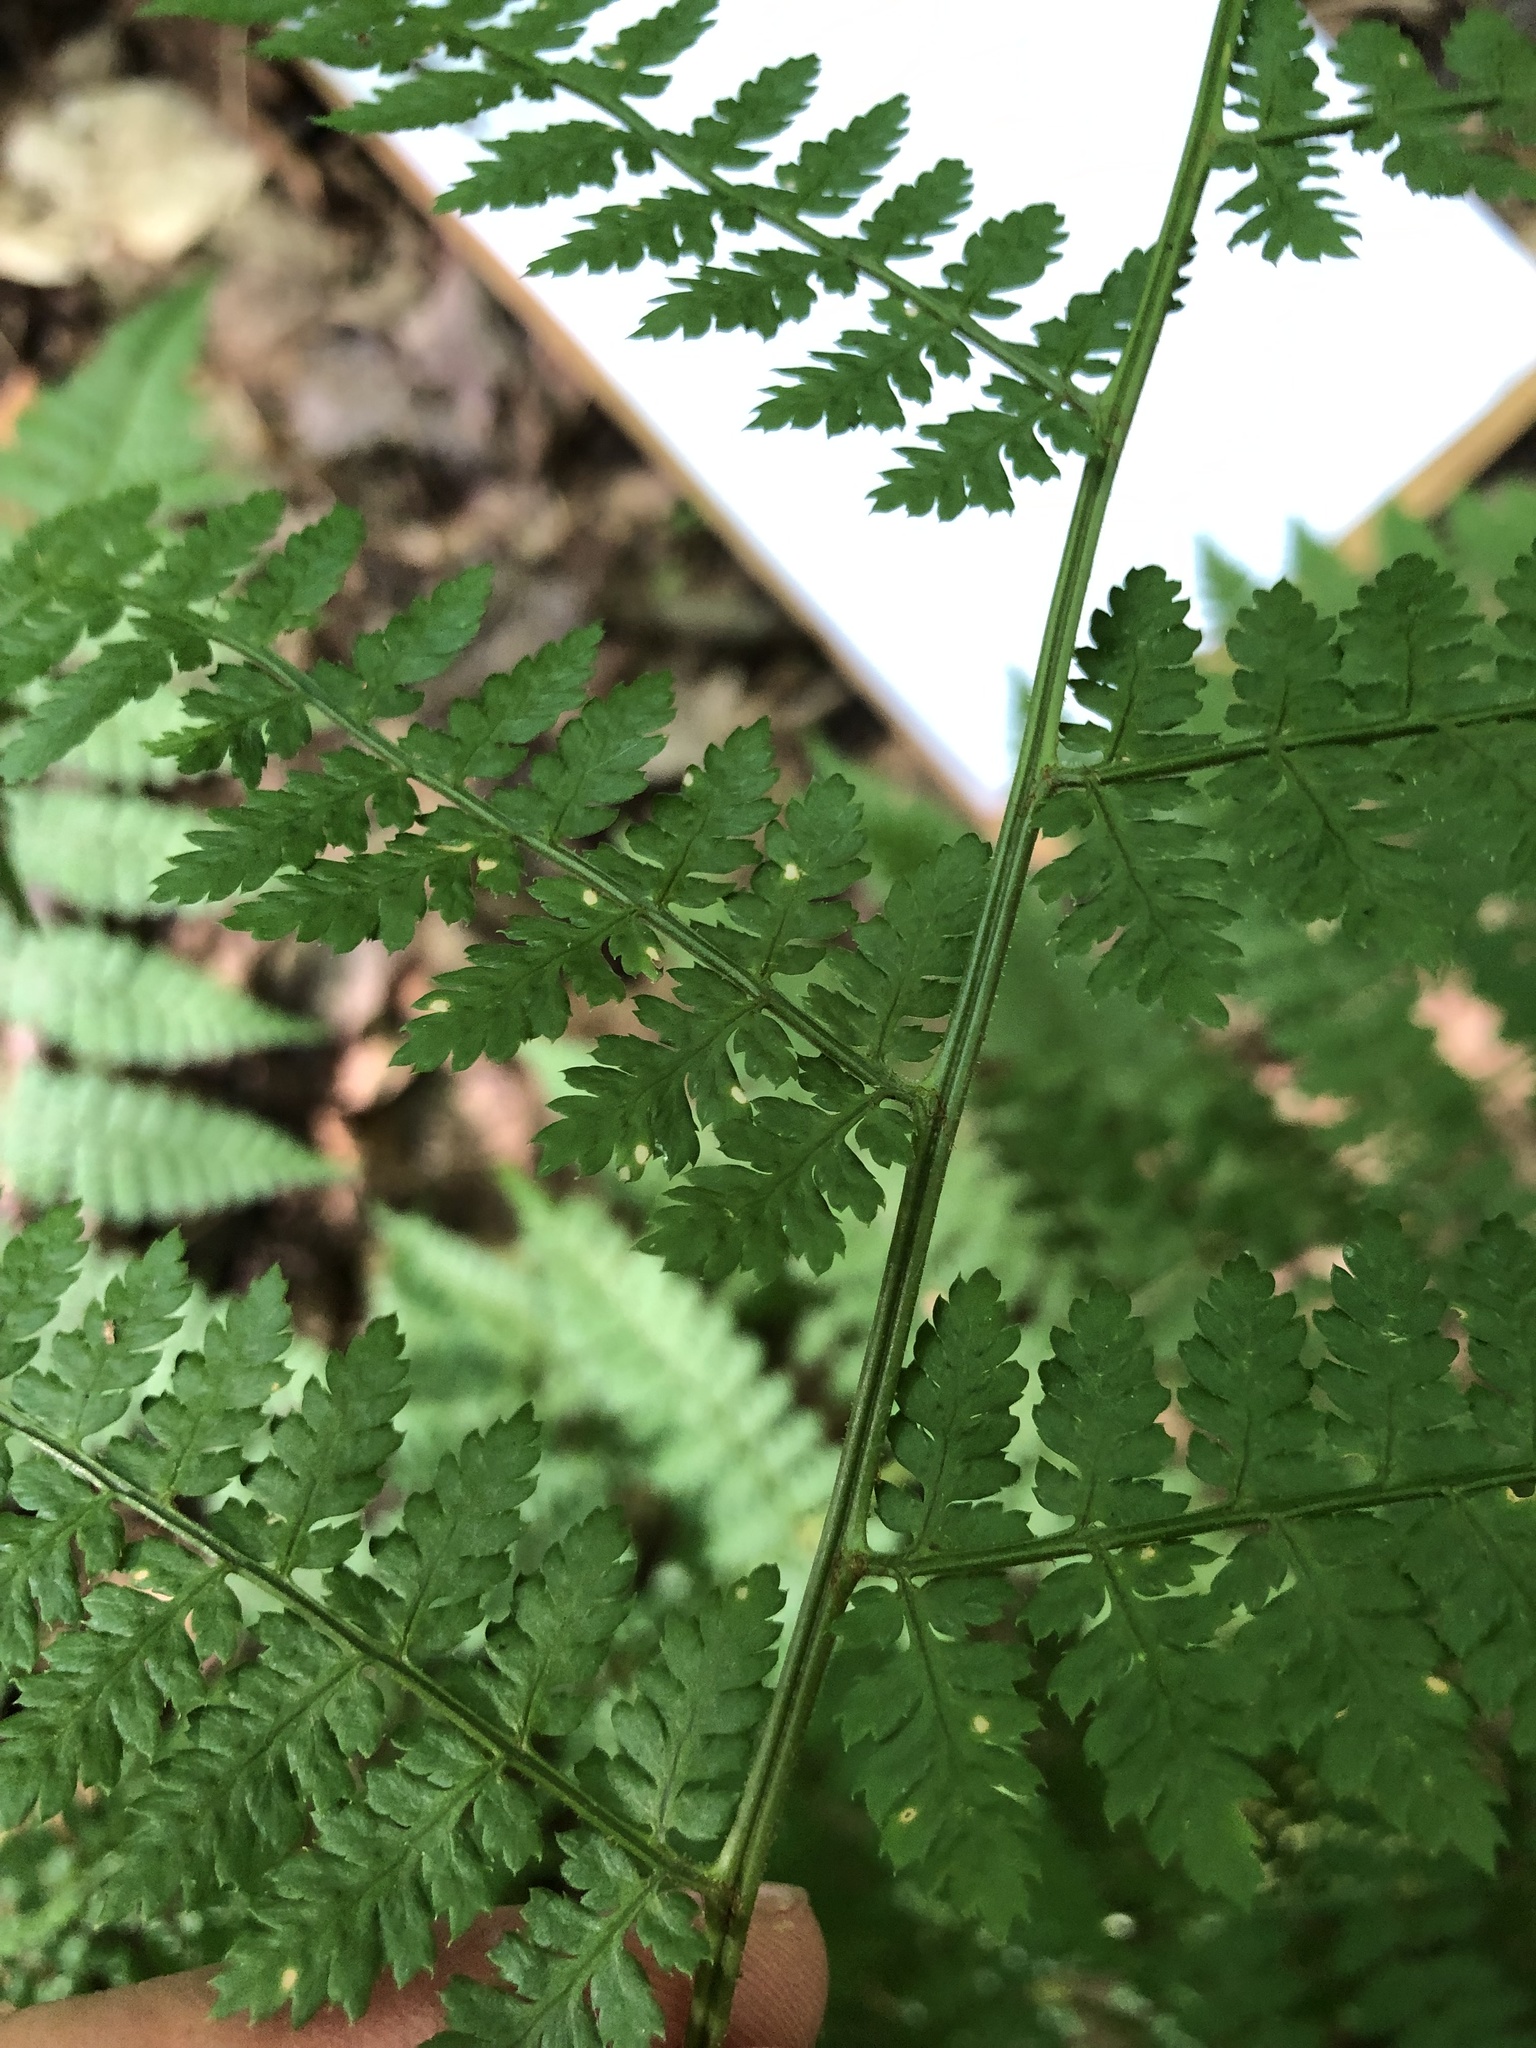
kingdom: Plantae
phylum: Tracheophyta
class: Polypodiopsida
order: Polypodiales
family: Dryopteridaceae
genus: Dryopteris
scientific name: Dryopteris intermedia
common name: Evergreen wood fern
